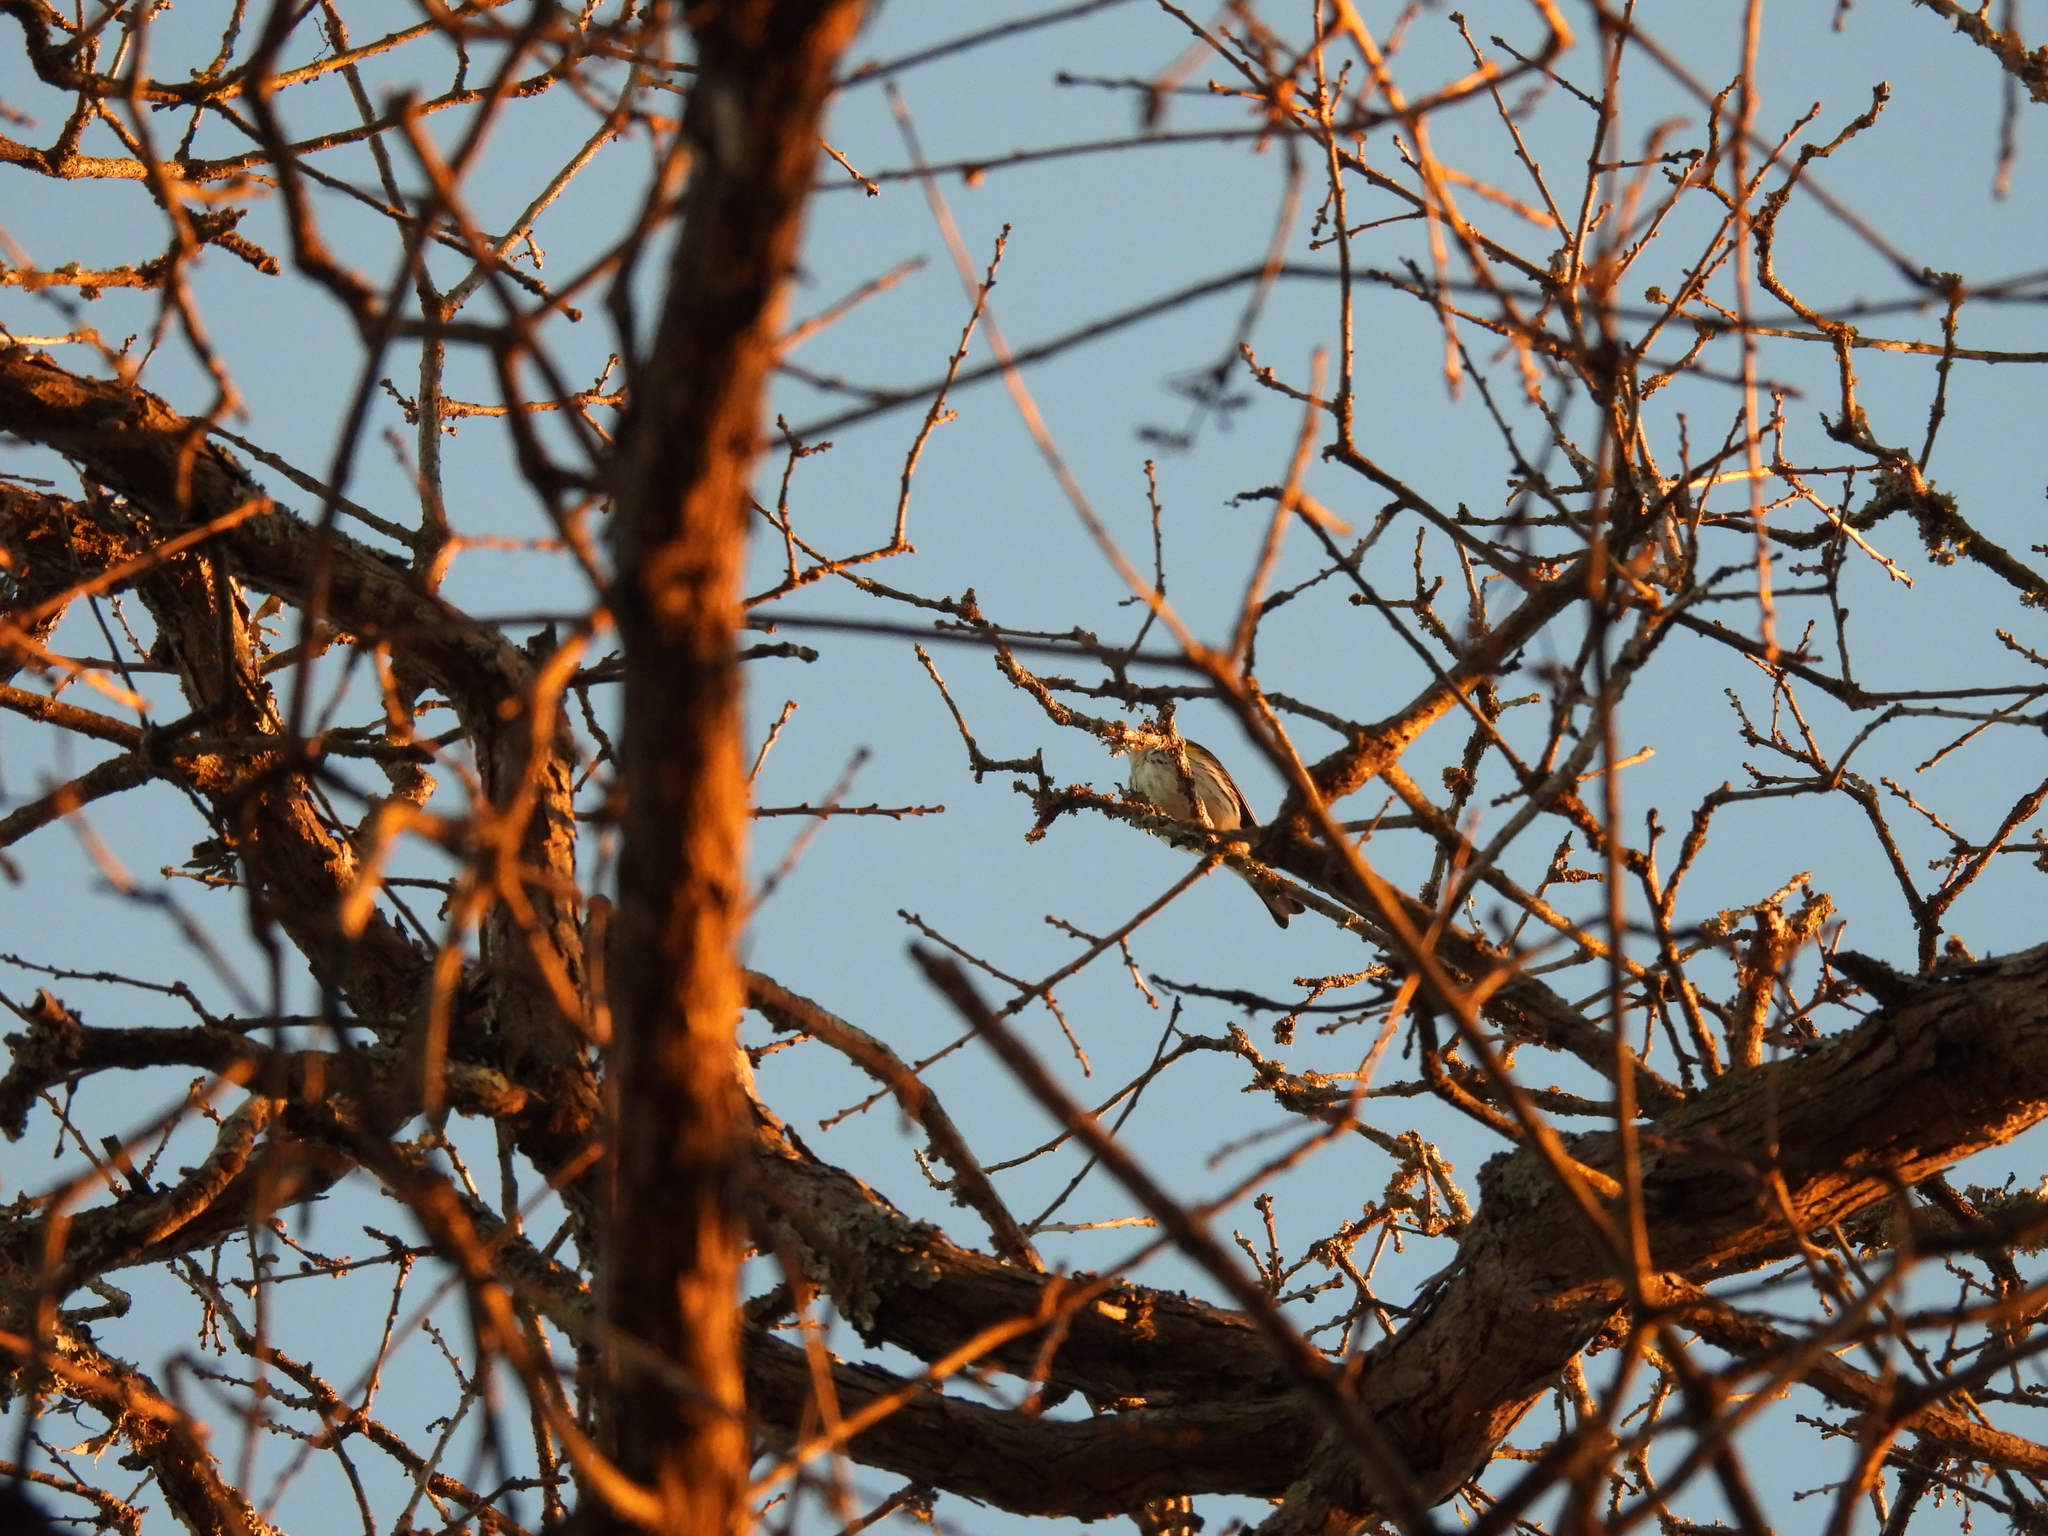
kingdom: Animalia
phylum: Chordata
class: Aves
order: Passeriformes
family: Parulidae
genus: Setophaga
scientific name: Setophaga coronata
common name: Myrtle warbler
